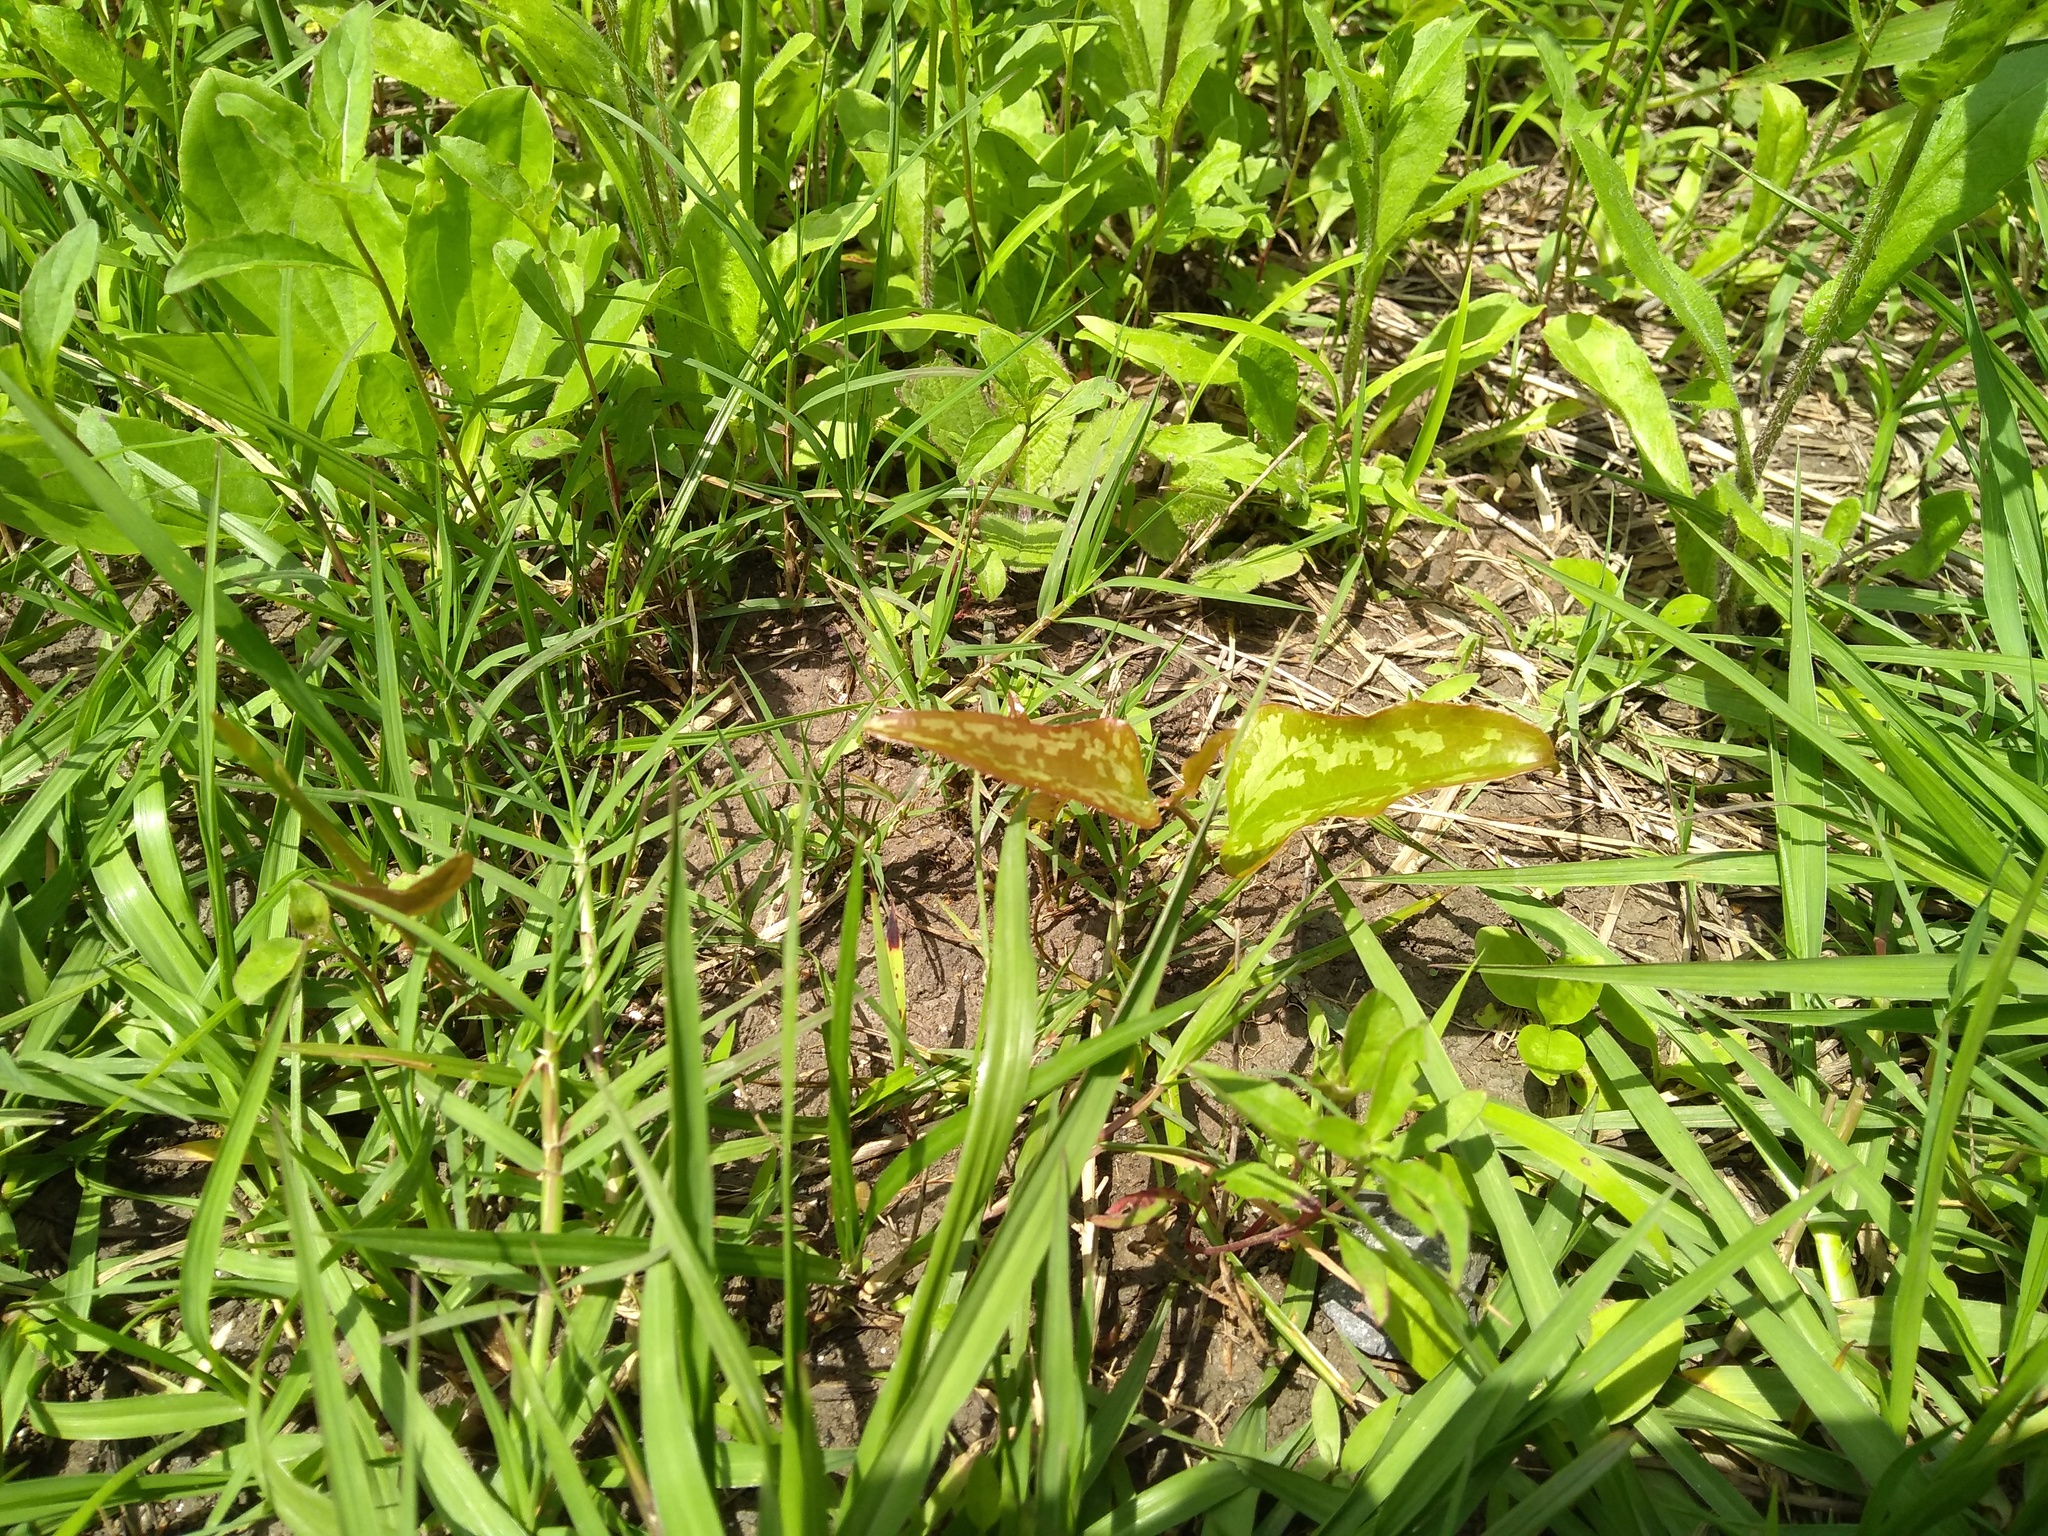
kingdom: Plantae
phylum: Tracheophyta
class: Liliopsida
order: Liliales
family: Smilacaceae
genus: Smilax
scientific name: Smilax bona-nox
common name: Catbrier
